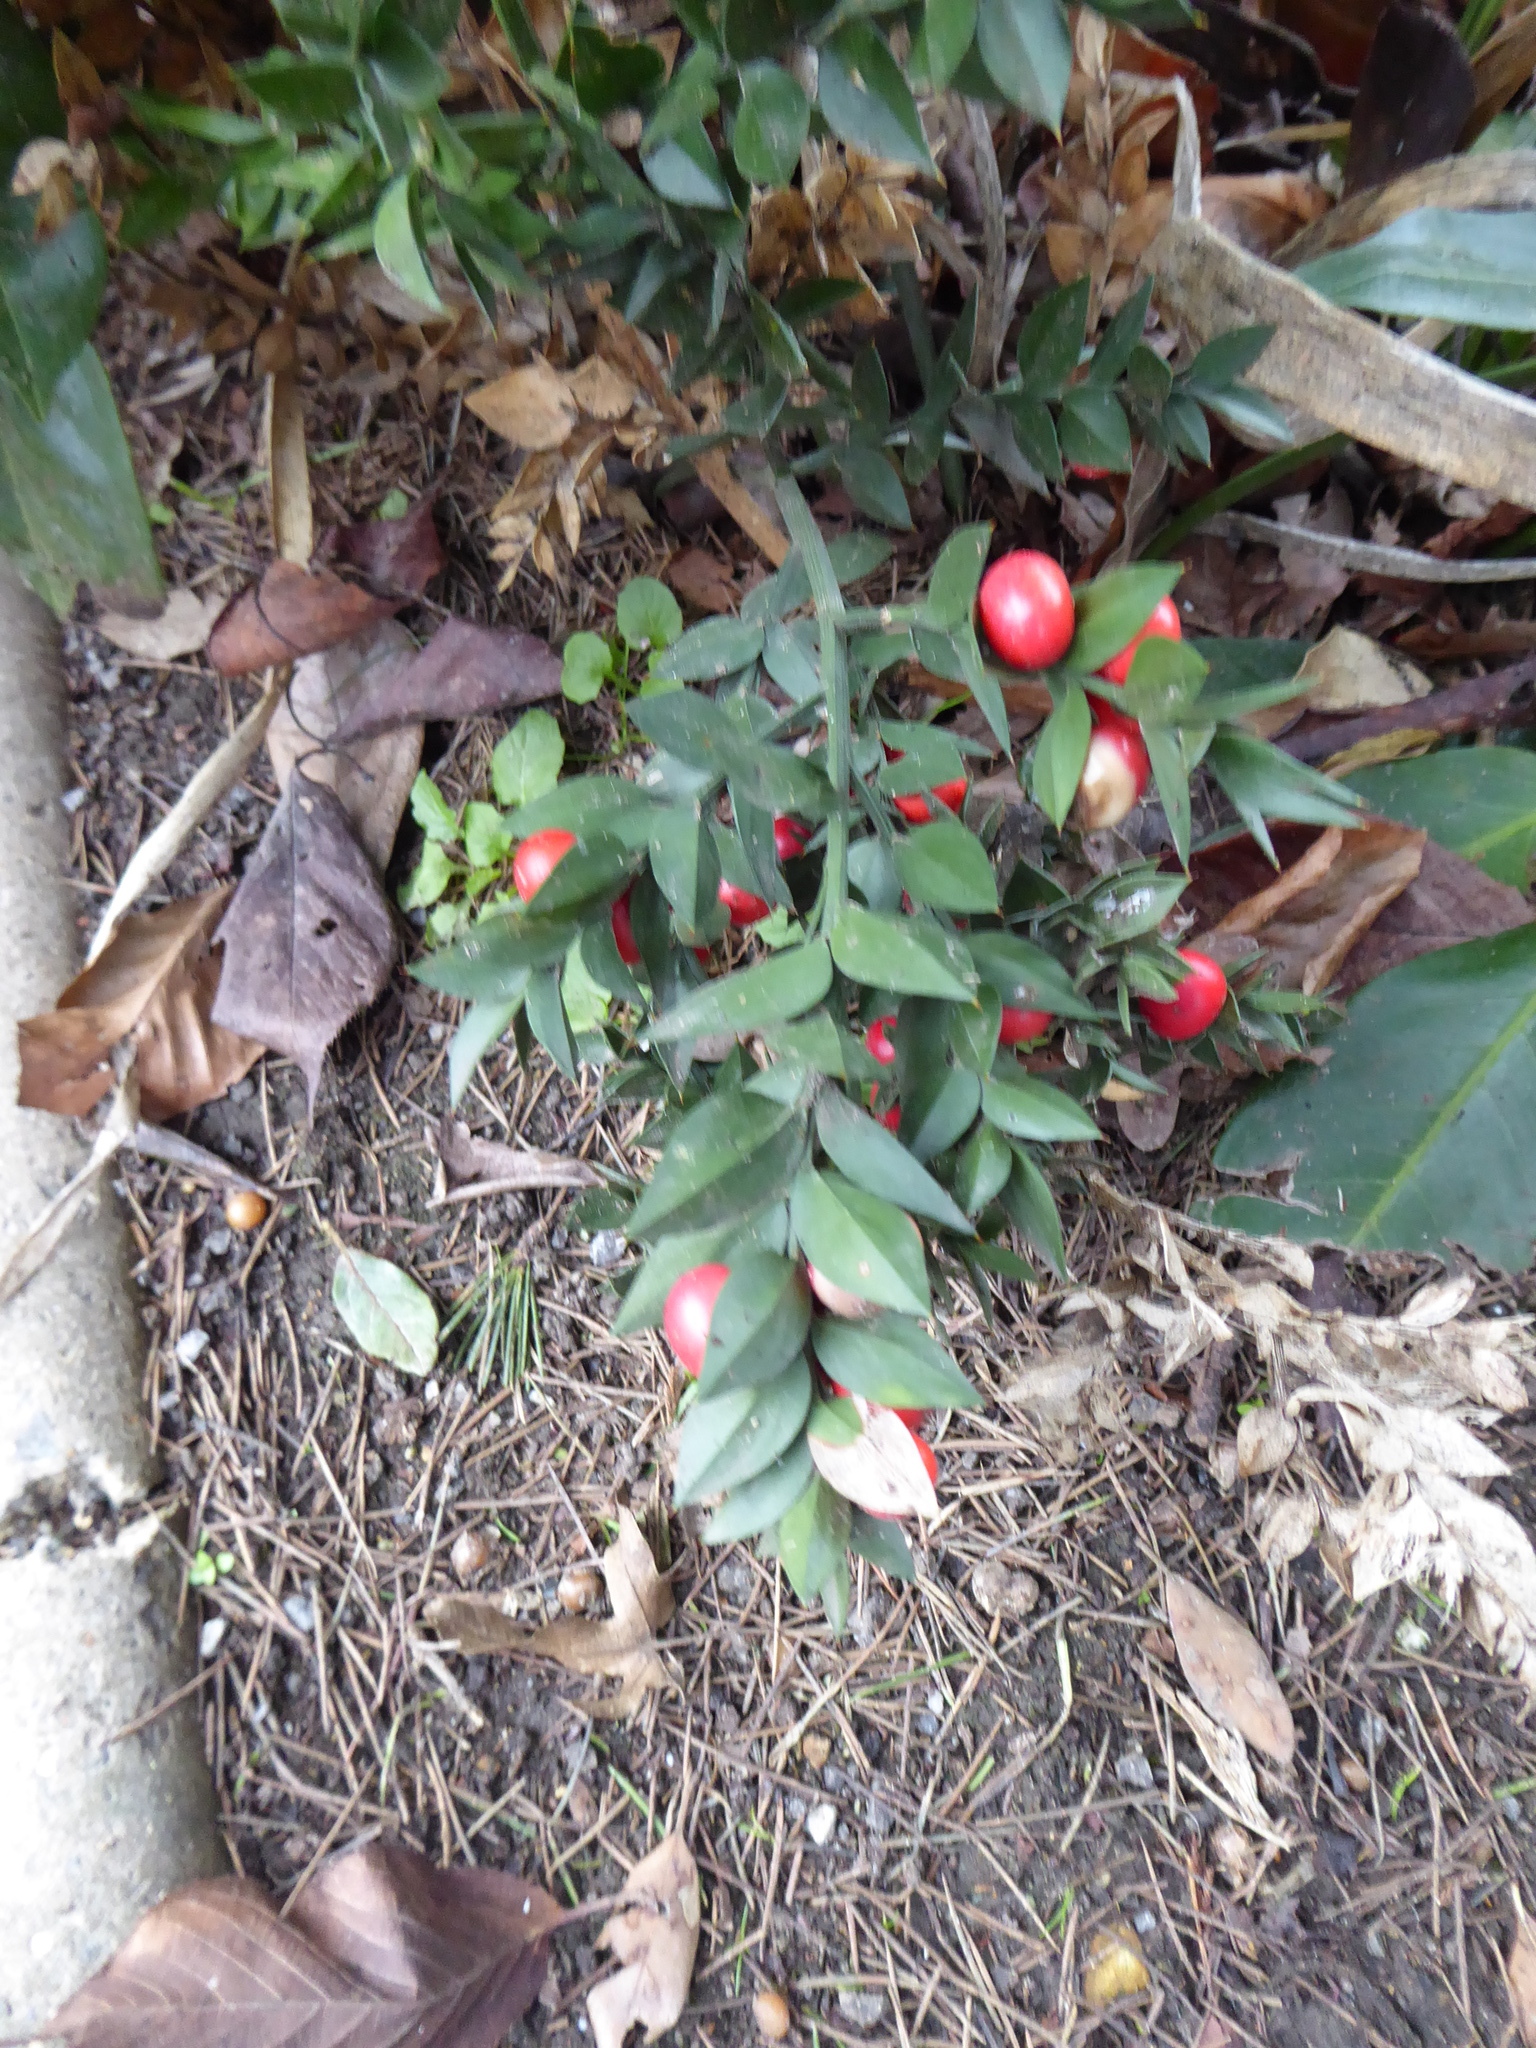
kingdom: Plantae
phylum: Tracheophyta
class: Liliopsida
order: Asparagales
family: Asparagaceae
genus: Ruscus
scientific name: Ruscus aculeatus
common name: Butcher's-broom
